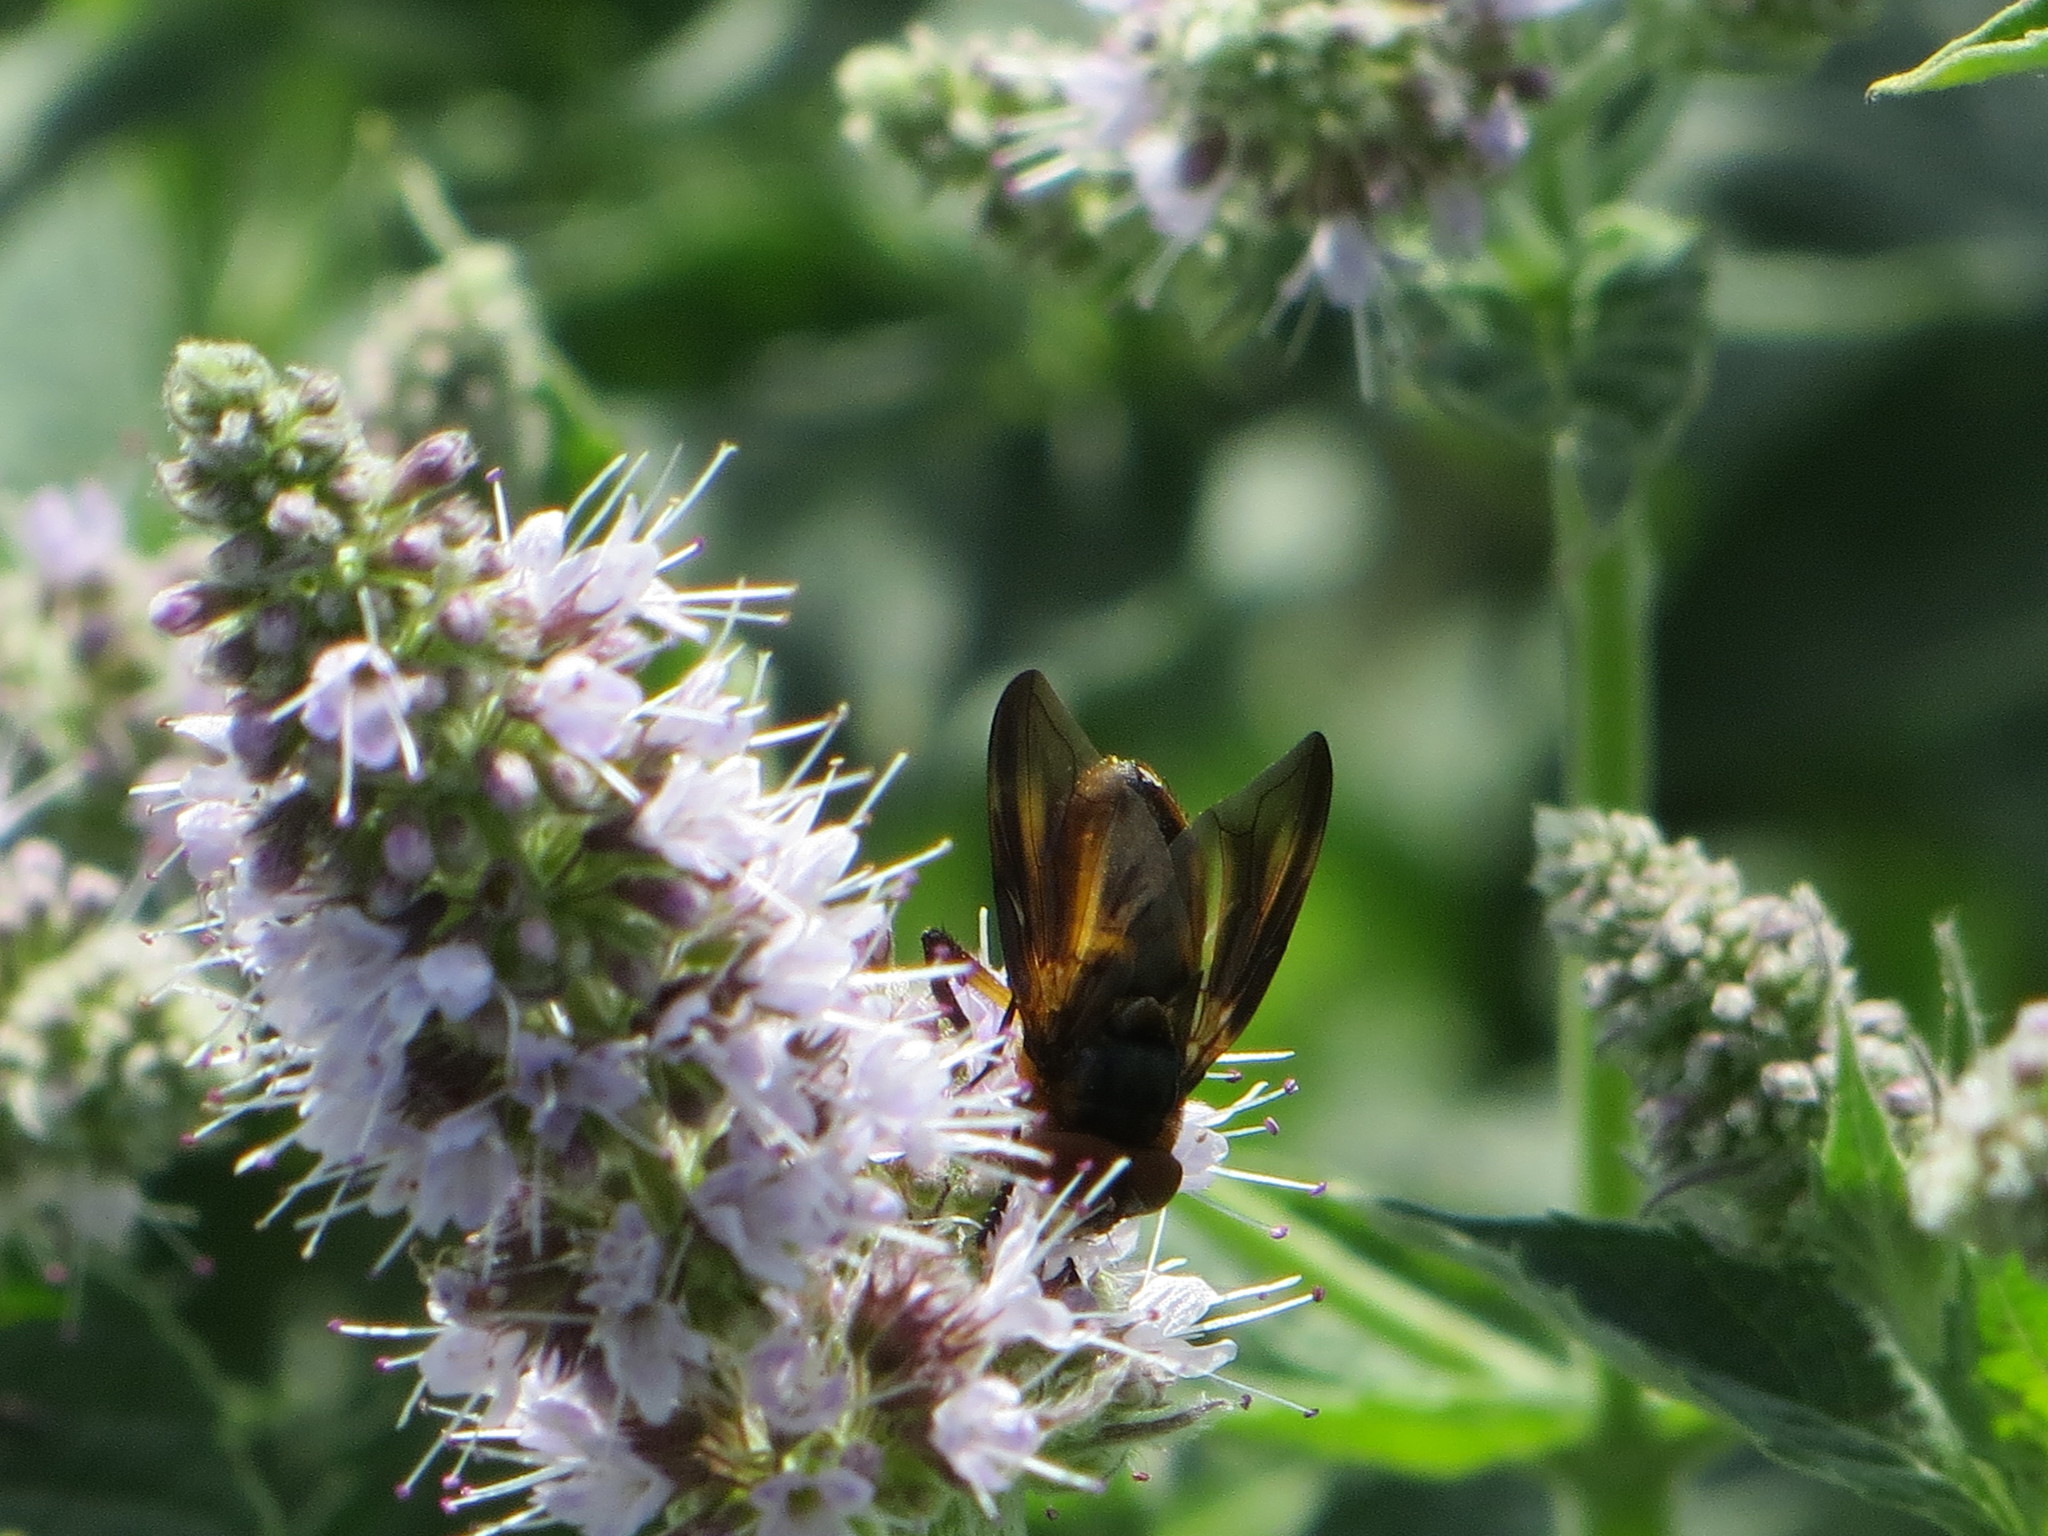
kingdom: Animalia
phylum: Arthropoda
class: Insecta
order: Diptera
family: Tachinidae
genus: Phasia
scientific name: Phasia hemiptera
